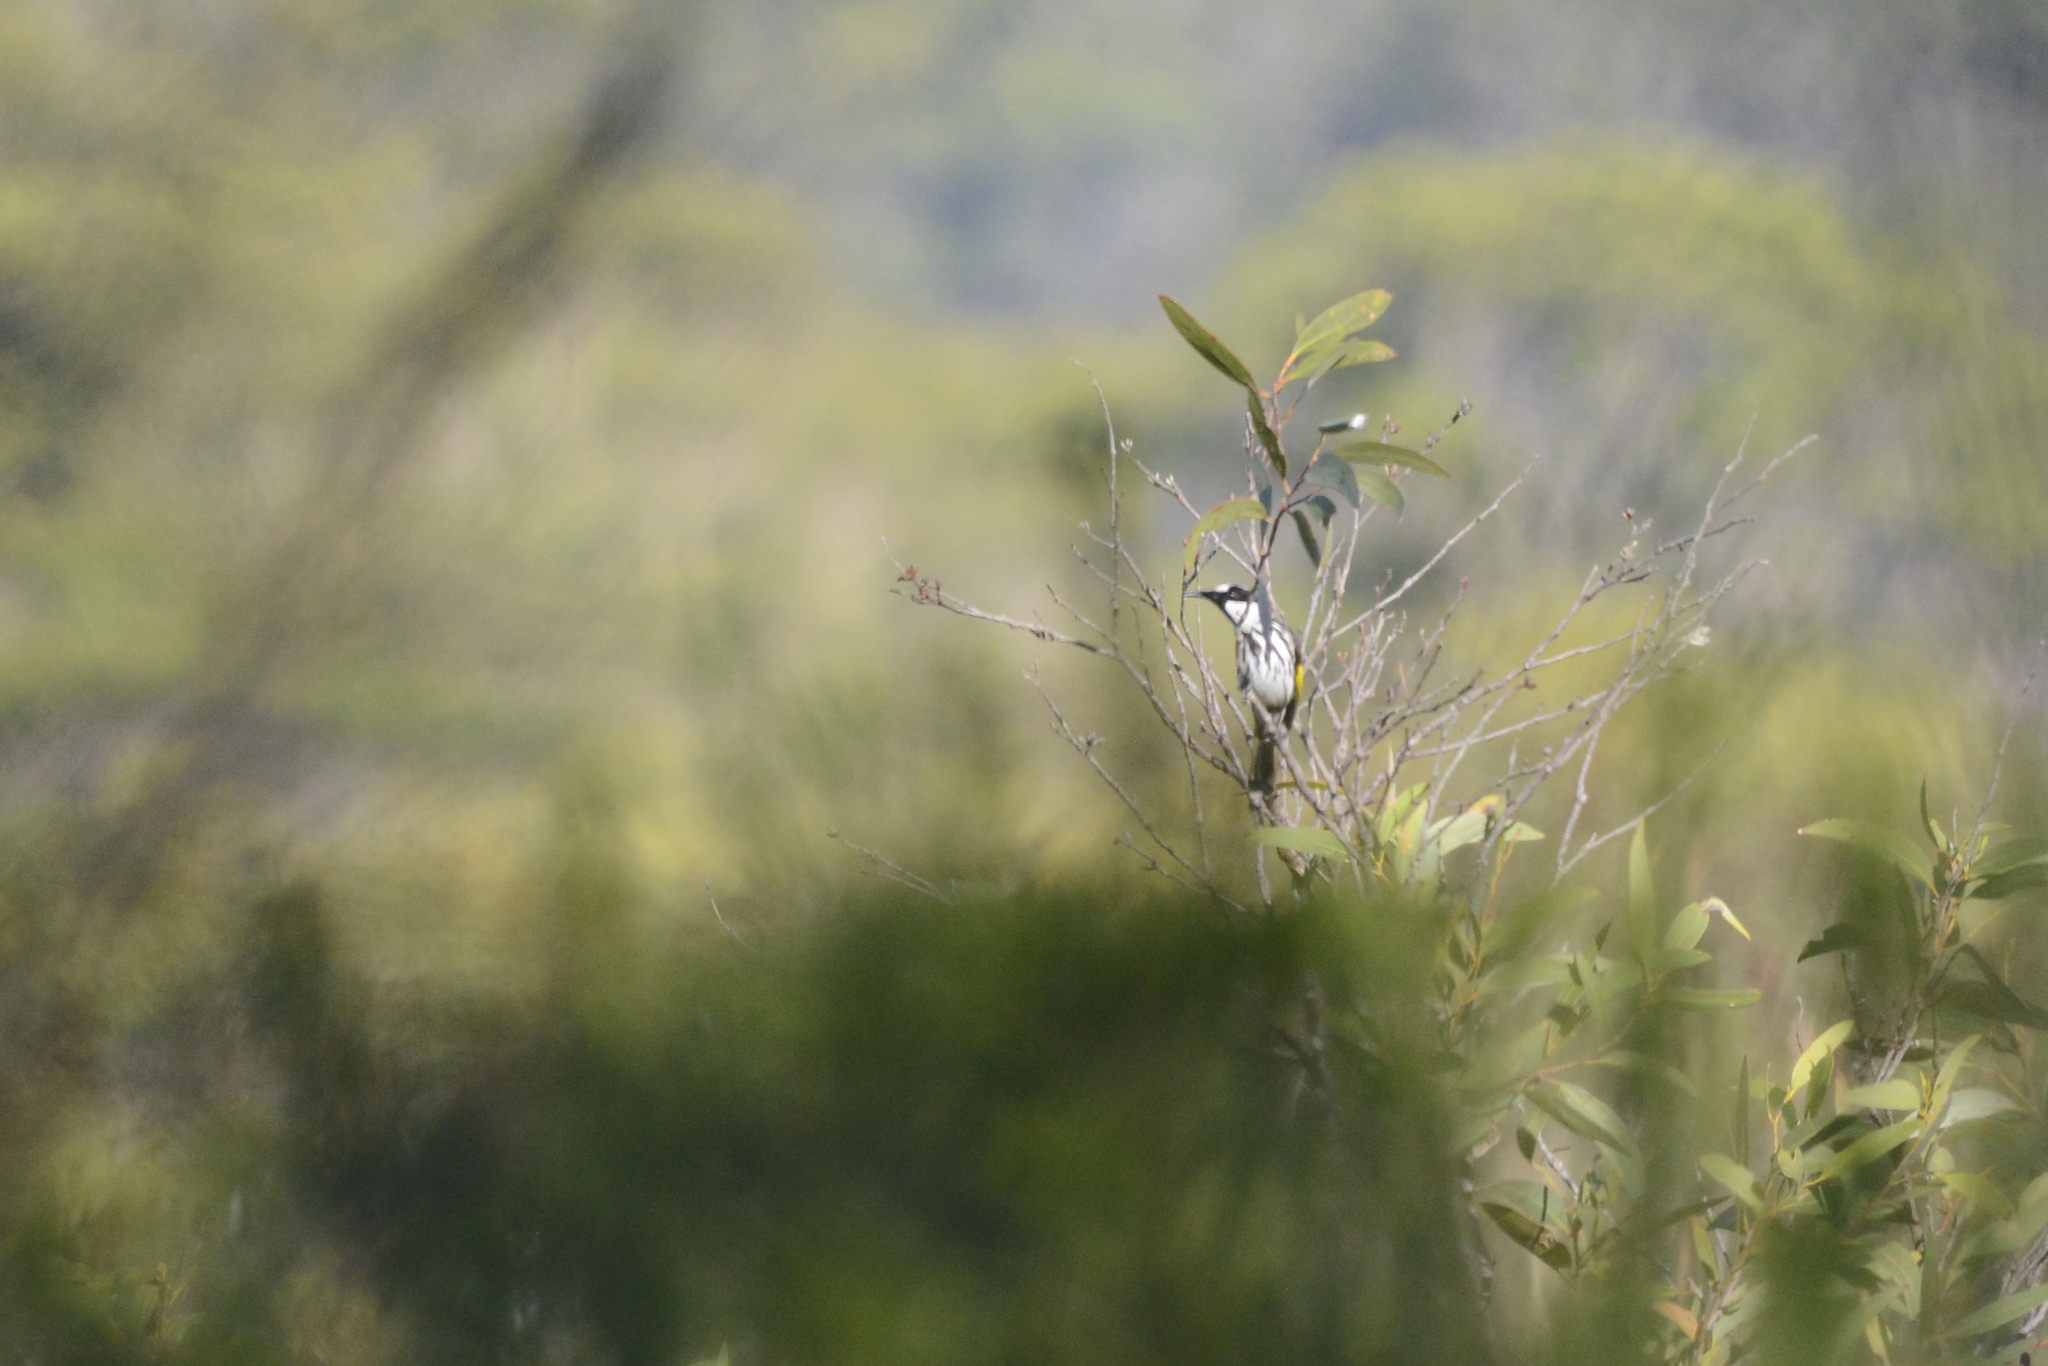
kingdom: Animalia
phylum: Chordata
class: Aves
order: Passeriformes
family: Meliphagidae
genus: Phylidonyris
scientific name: Phylidonyris niger
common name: White-cheeked honeyeater
